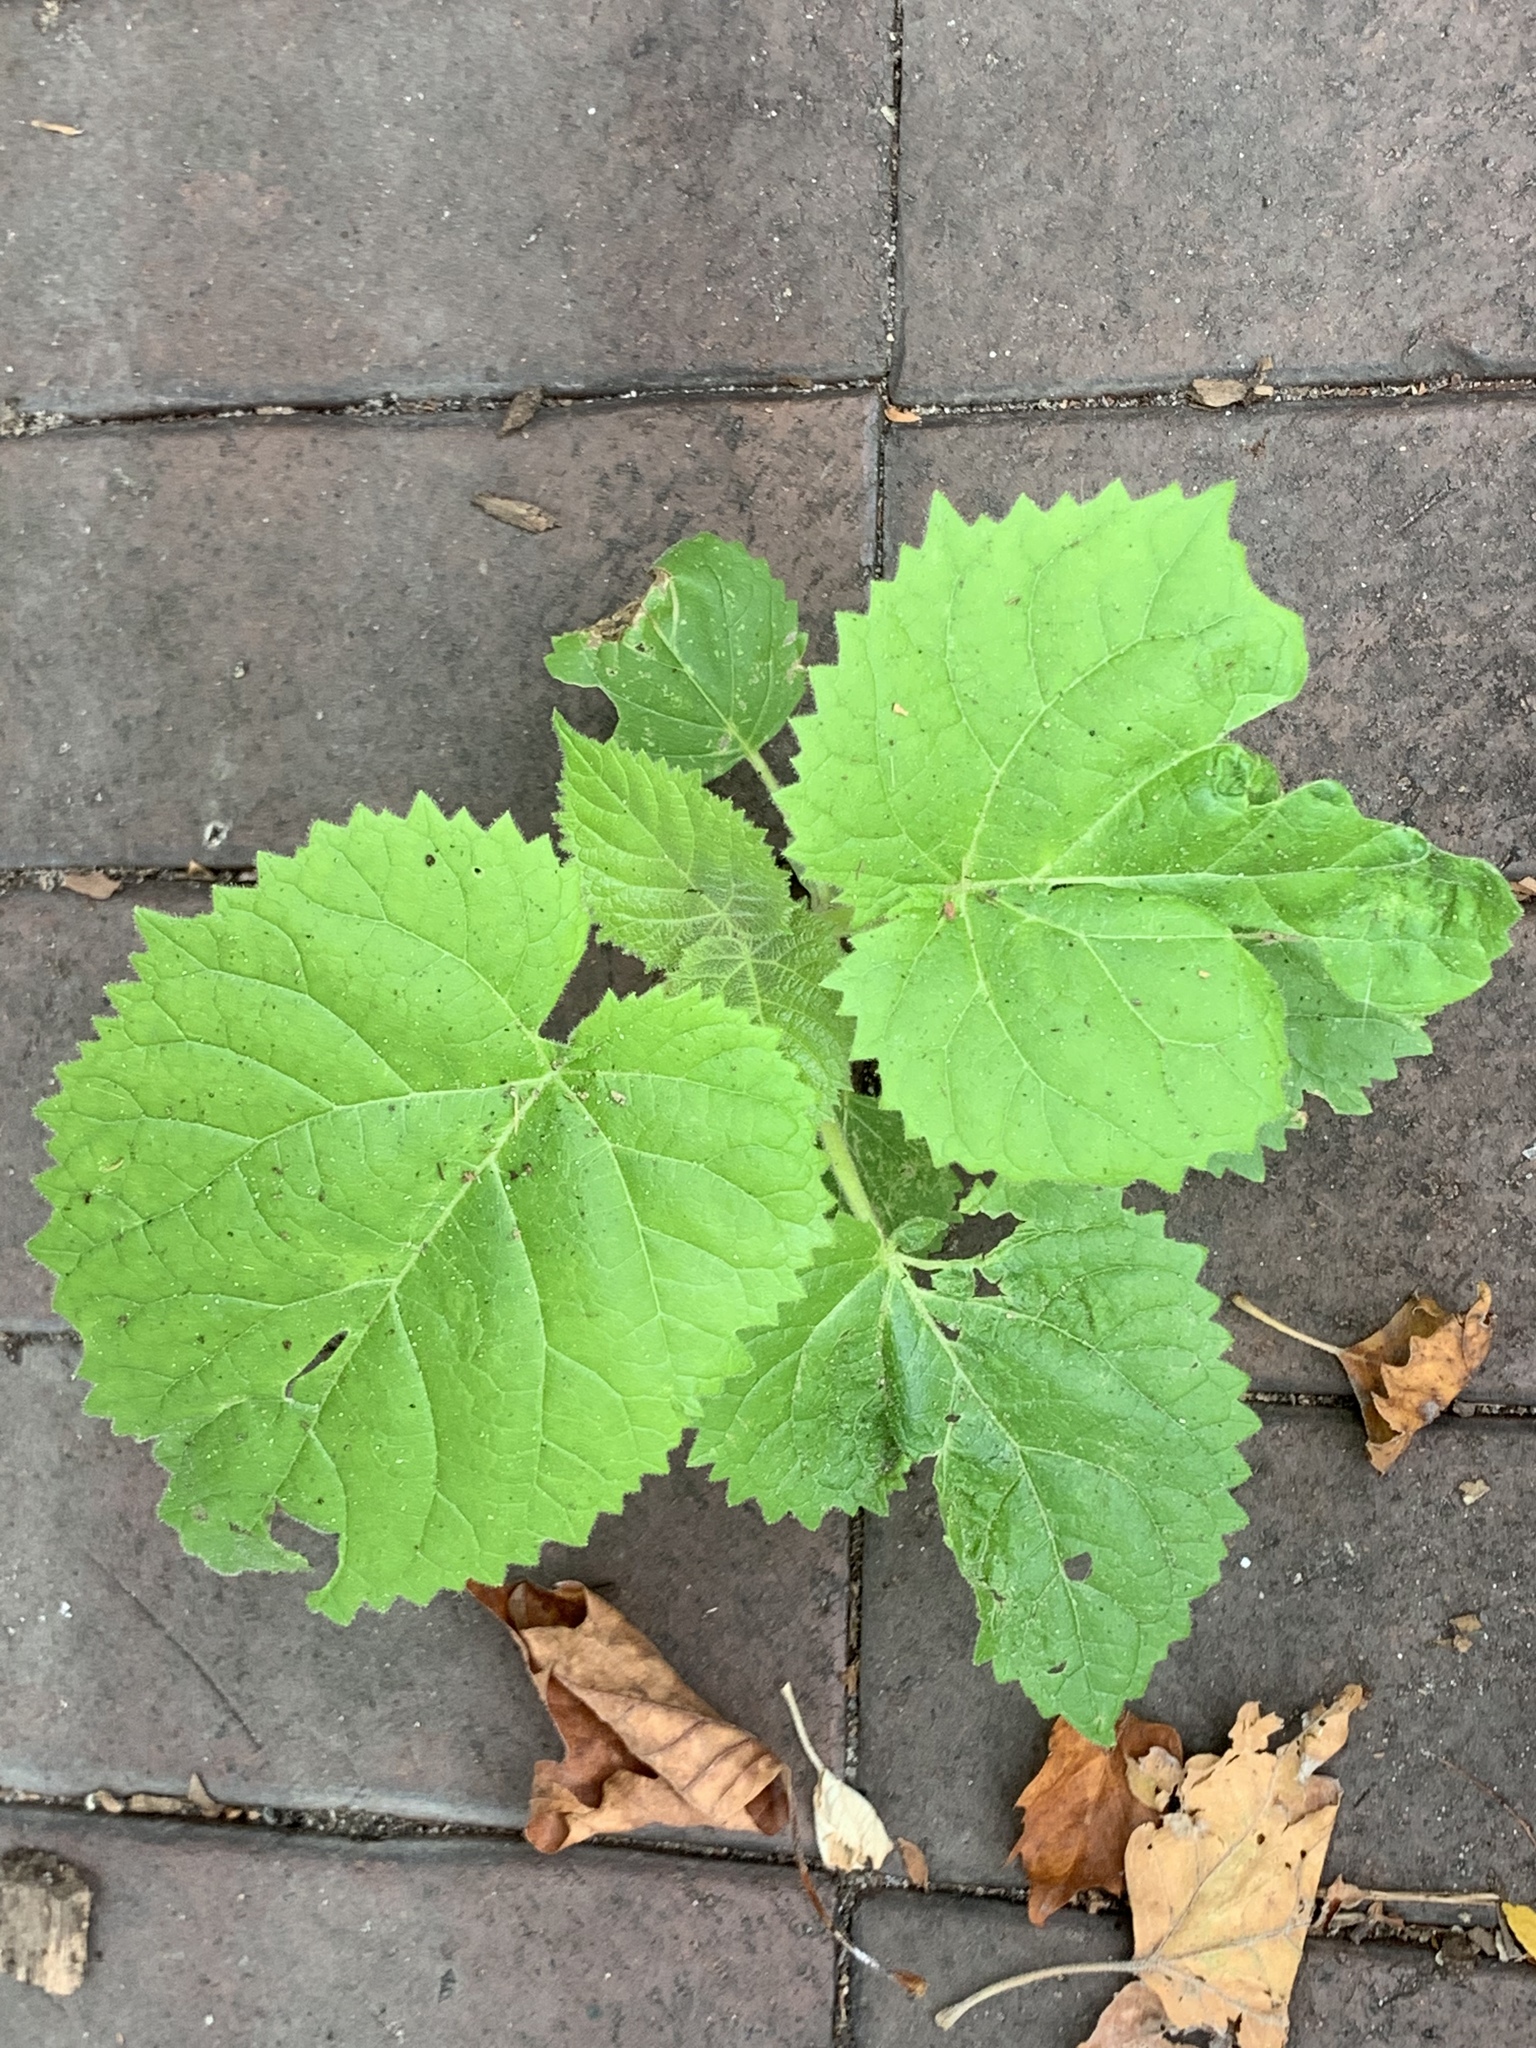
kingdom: Plantae
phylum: Tracheophyta
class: Magnoliopsida
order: Lamiales
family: Paulowniaceae
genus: Paulownia
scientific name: Paulownia tomentosa
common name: Foxglove-tree
